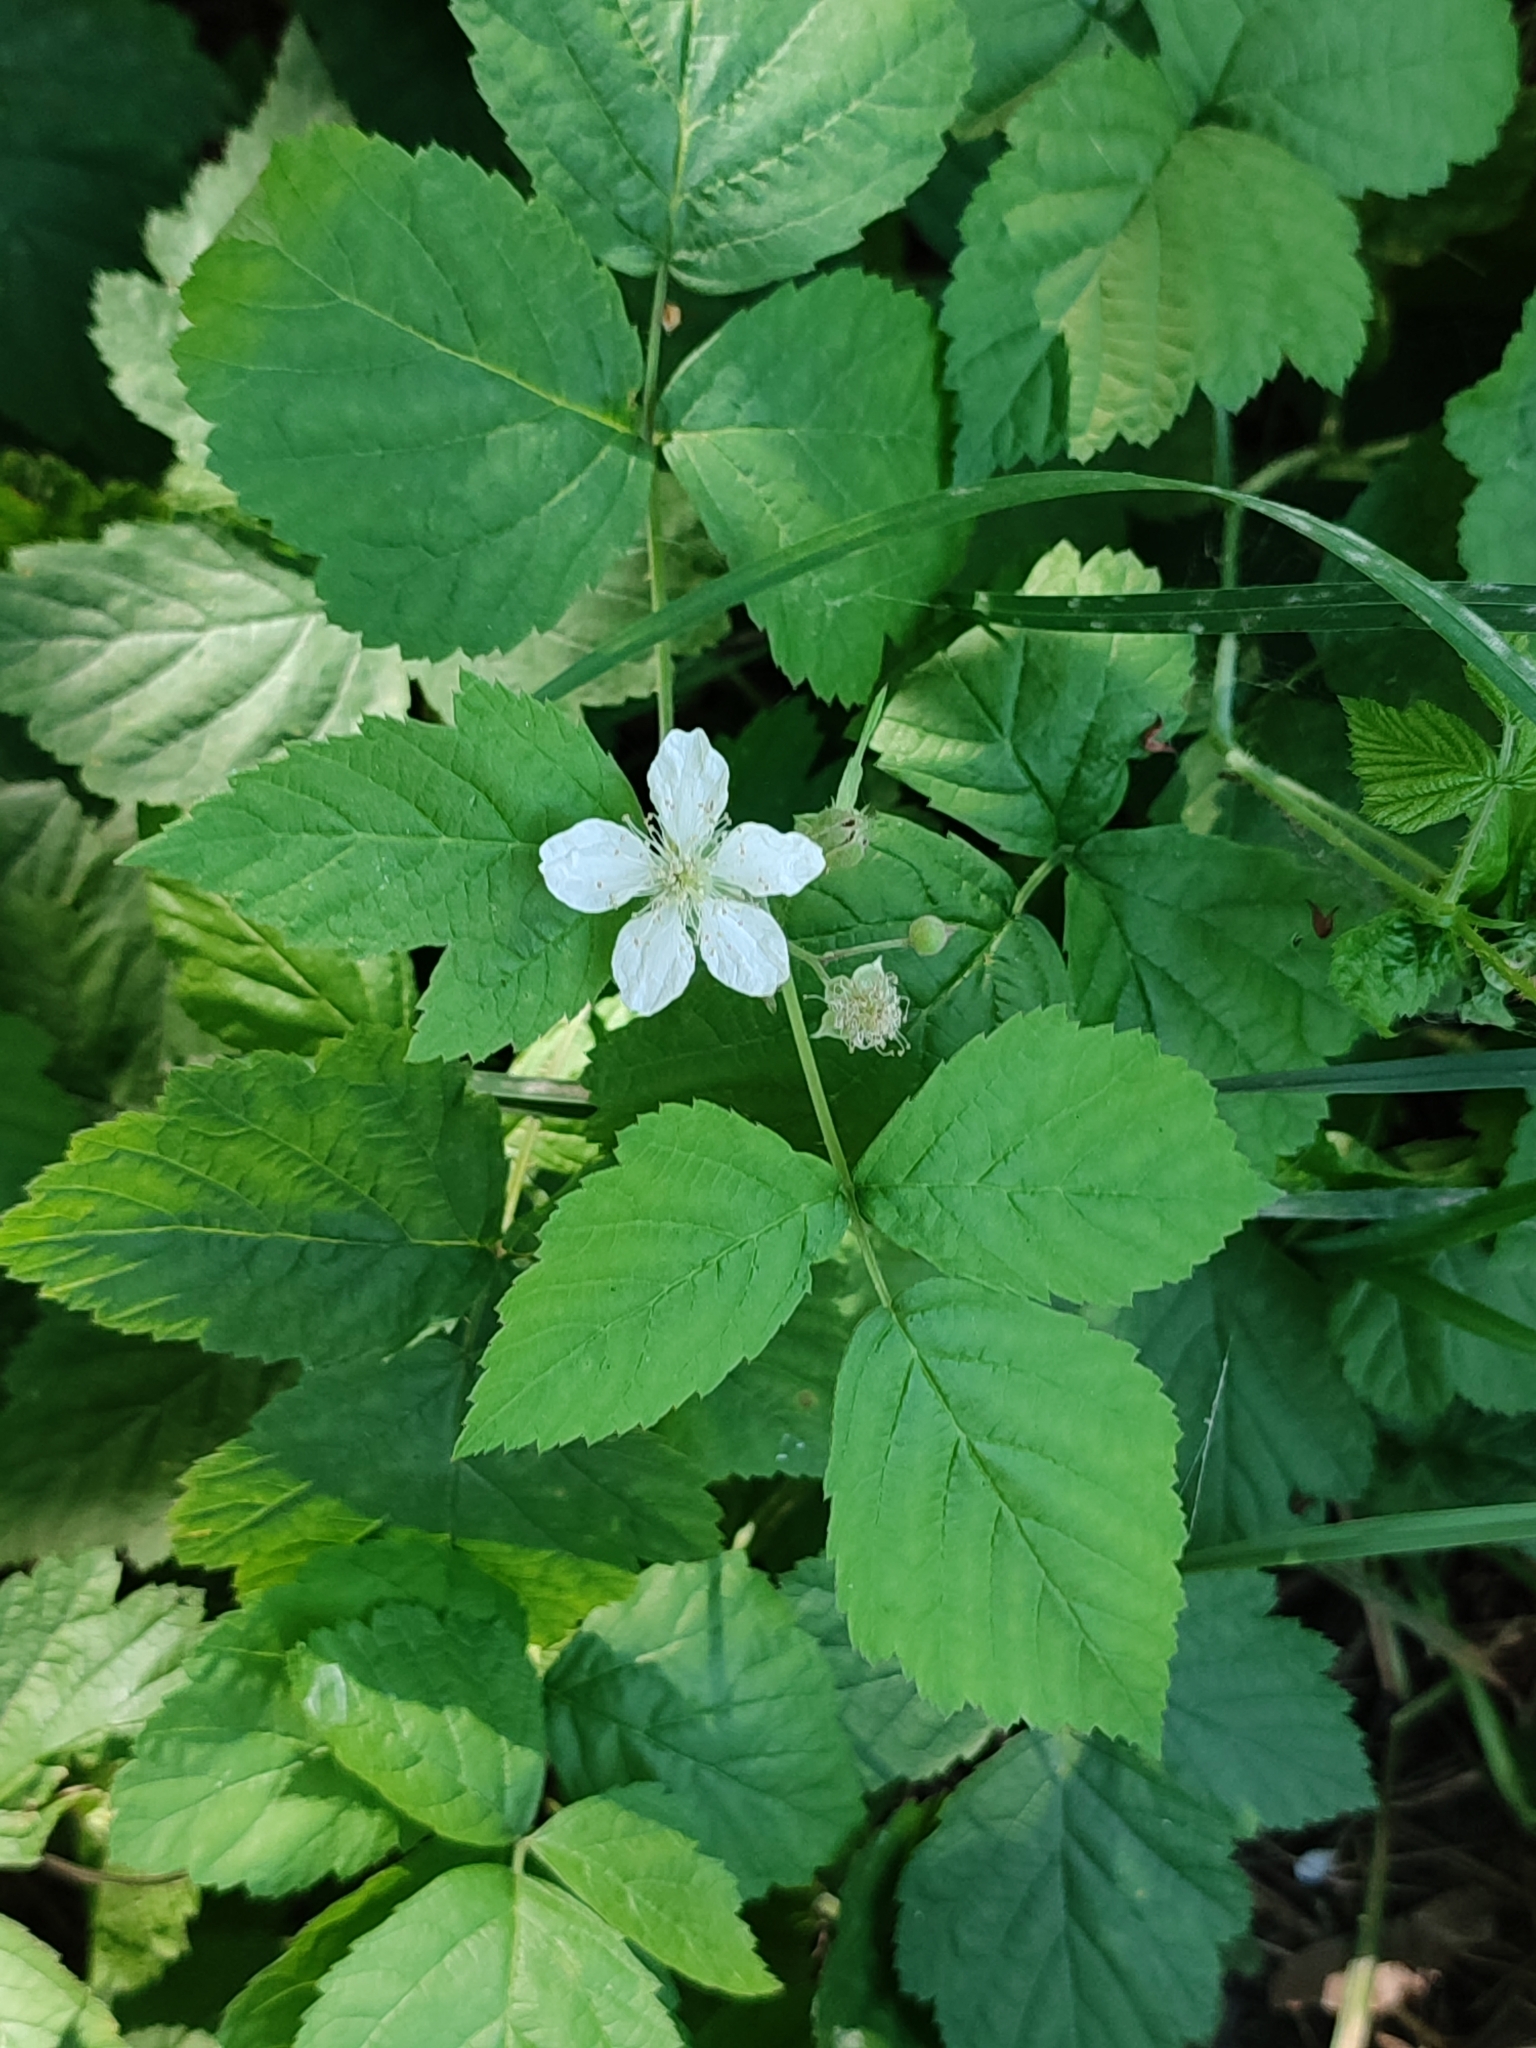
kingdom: Plantae
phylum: Tracheophyta
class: Magnoliopsida
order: Rosales
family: Rosaceae
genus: Rubus
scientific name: Rubus caesius
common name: Dewberry
